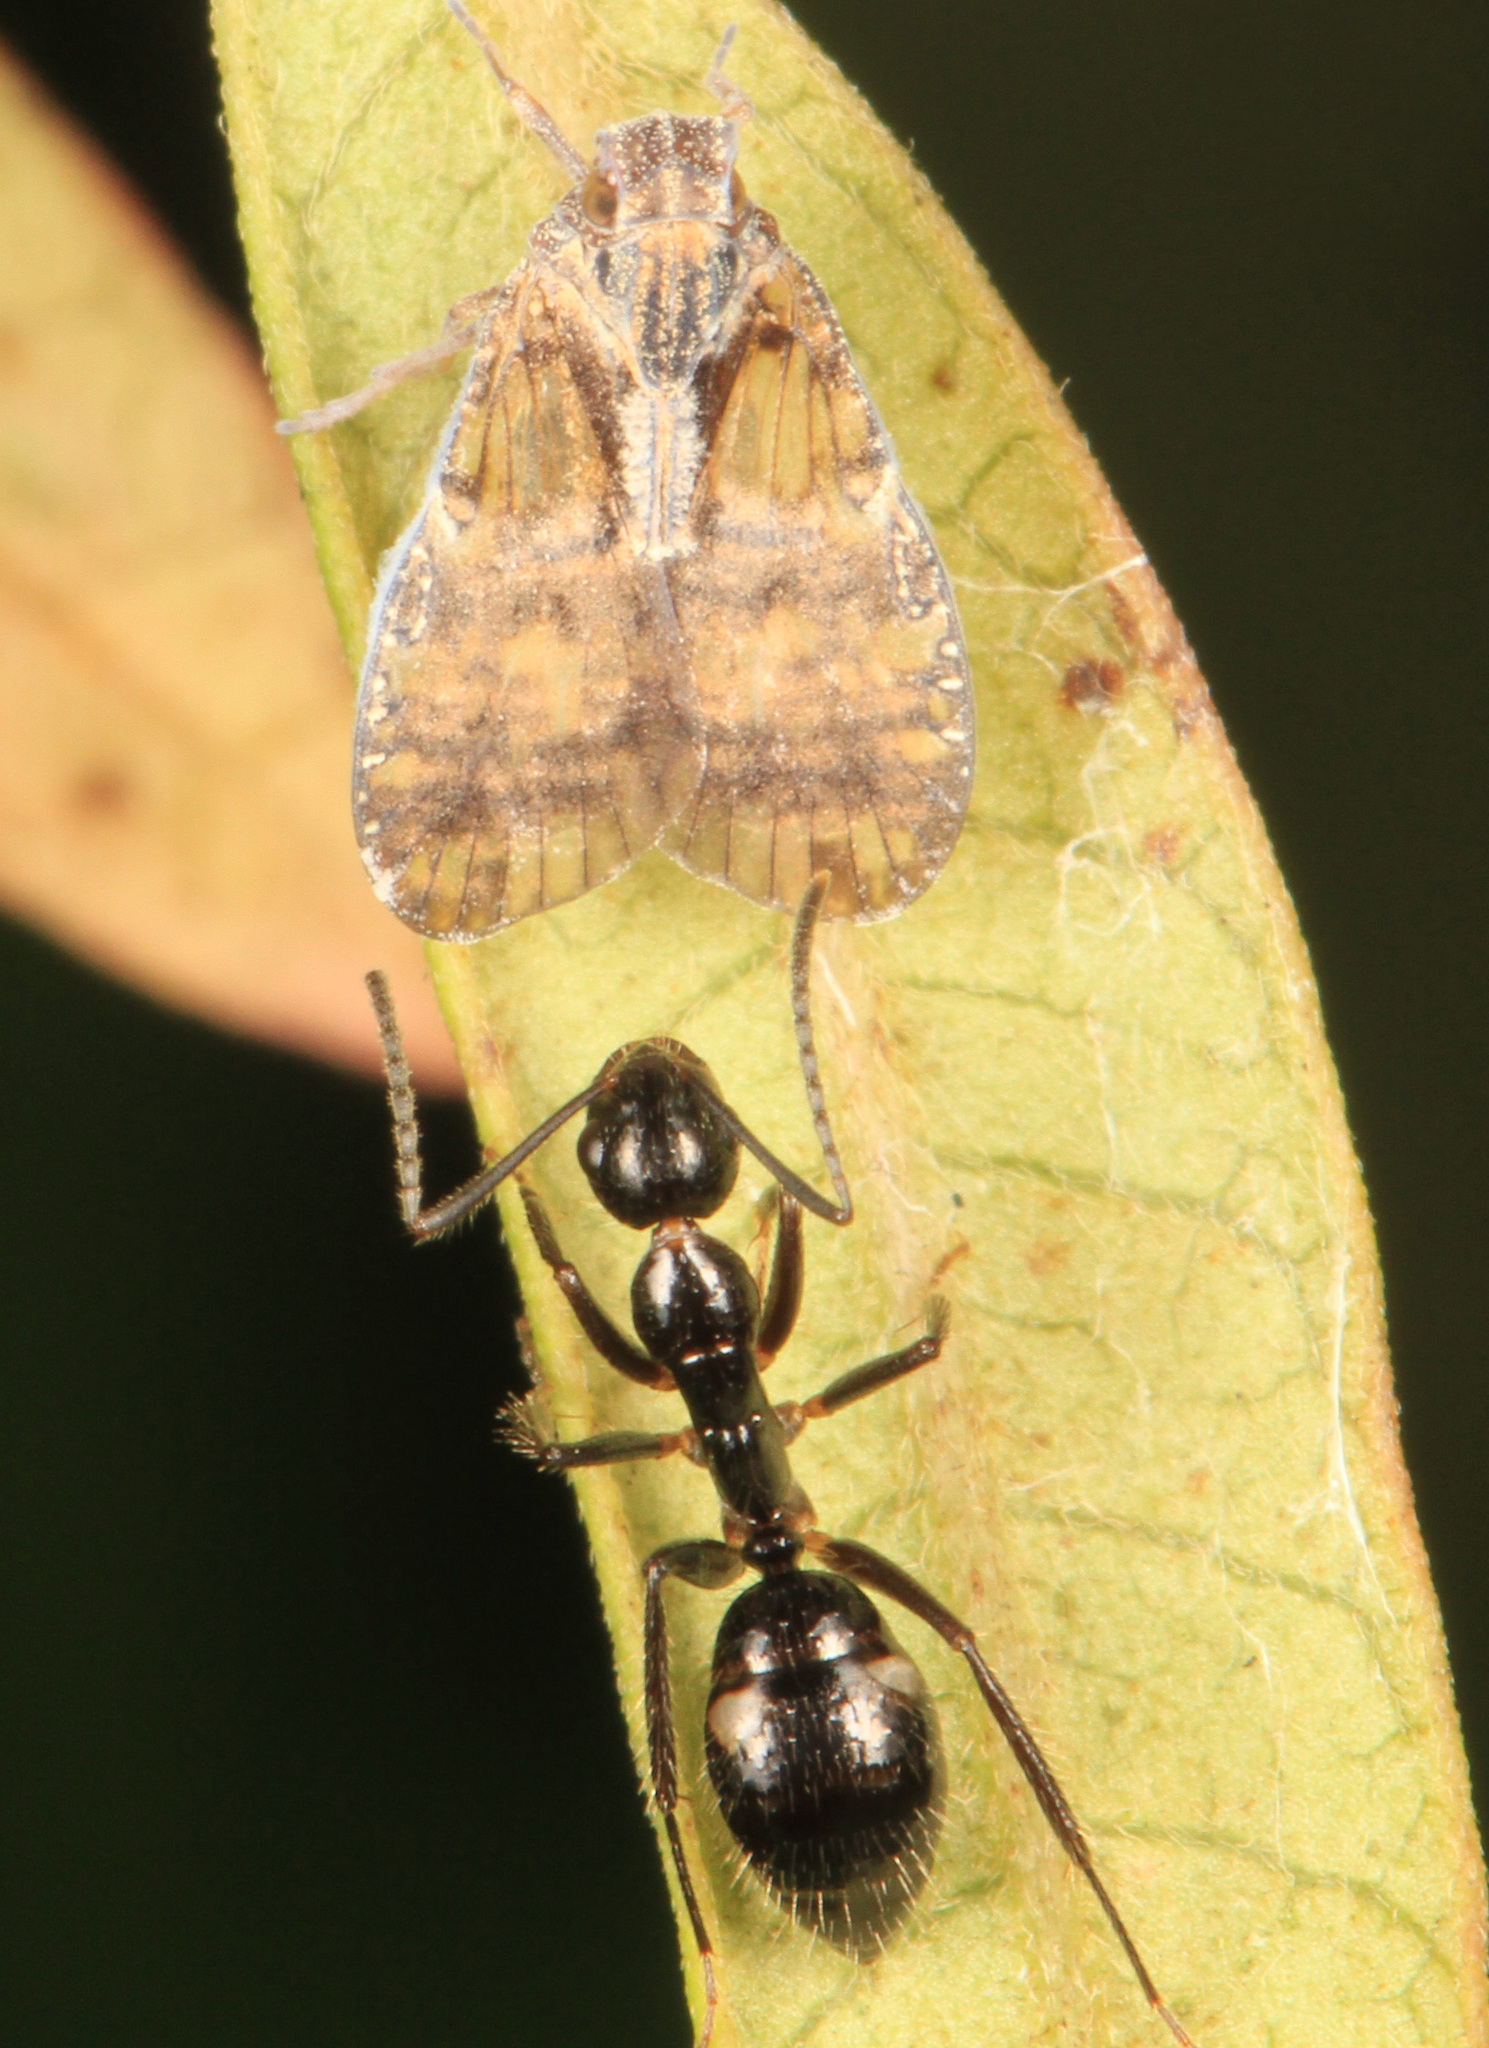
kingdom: Animalia
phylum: Arthropoda
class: Insecta
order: Hymenoptera
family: Formicidae
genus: Camponotus
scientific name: Camponotus sexguttatus
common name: Neotropical carpenter ant
